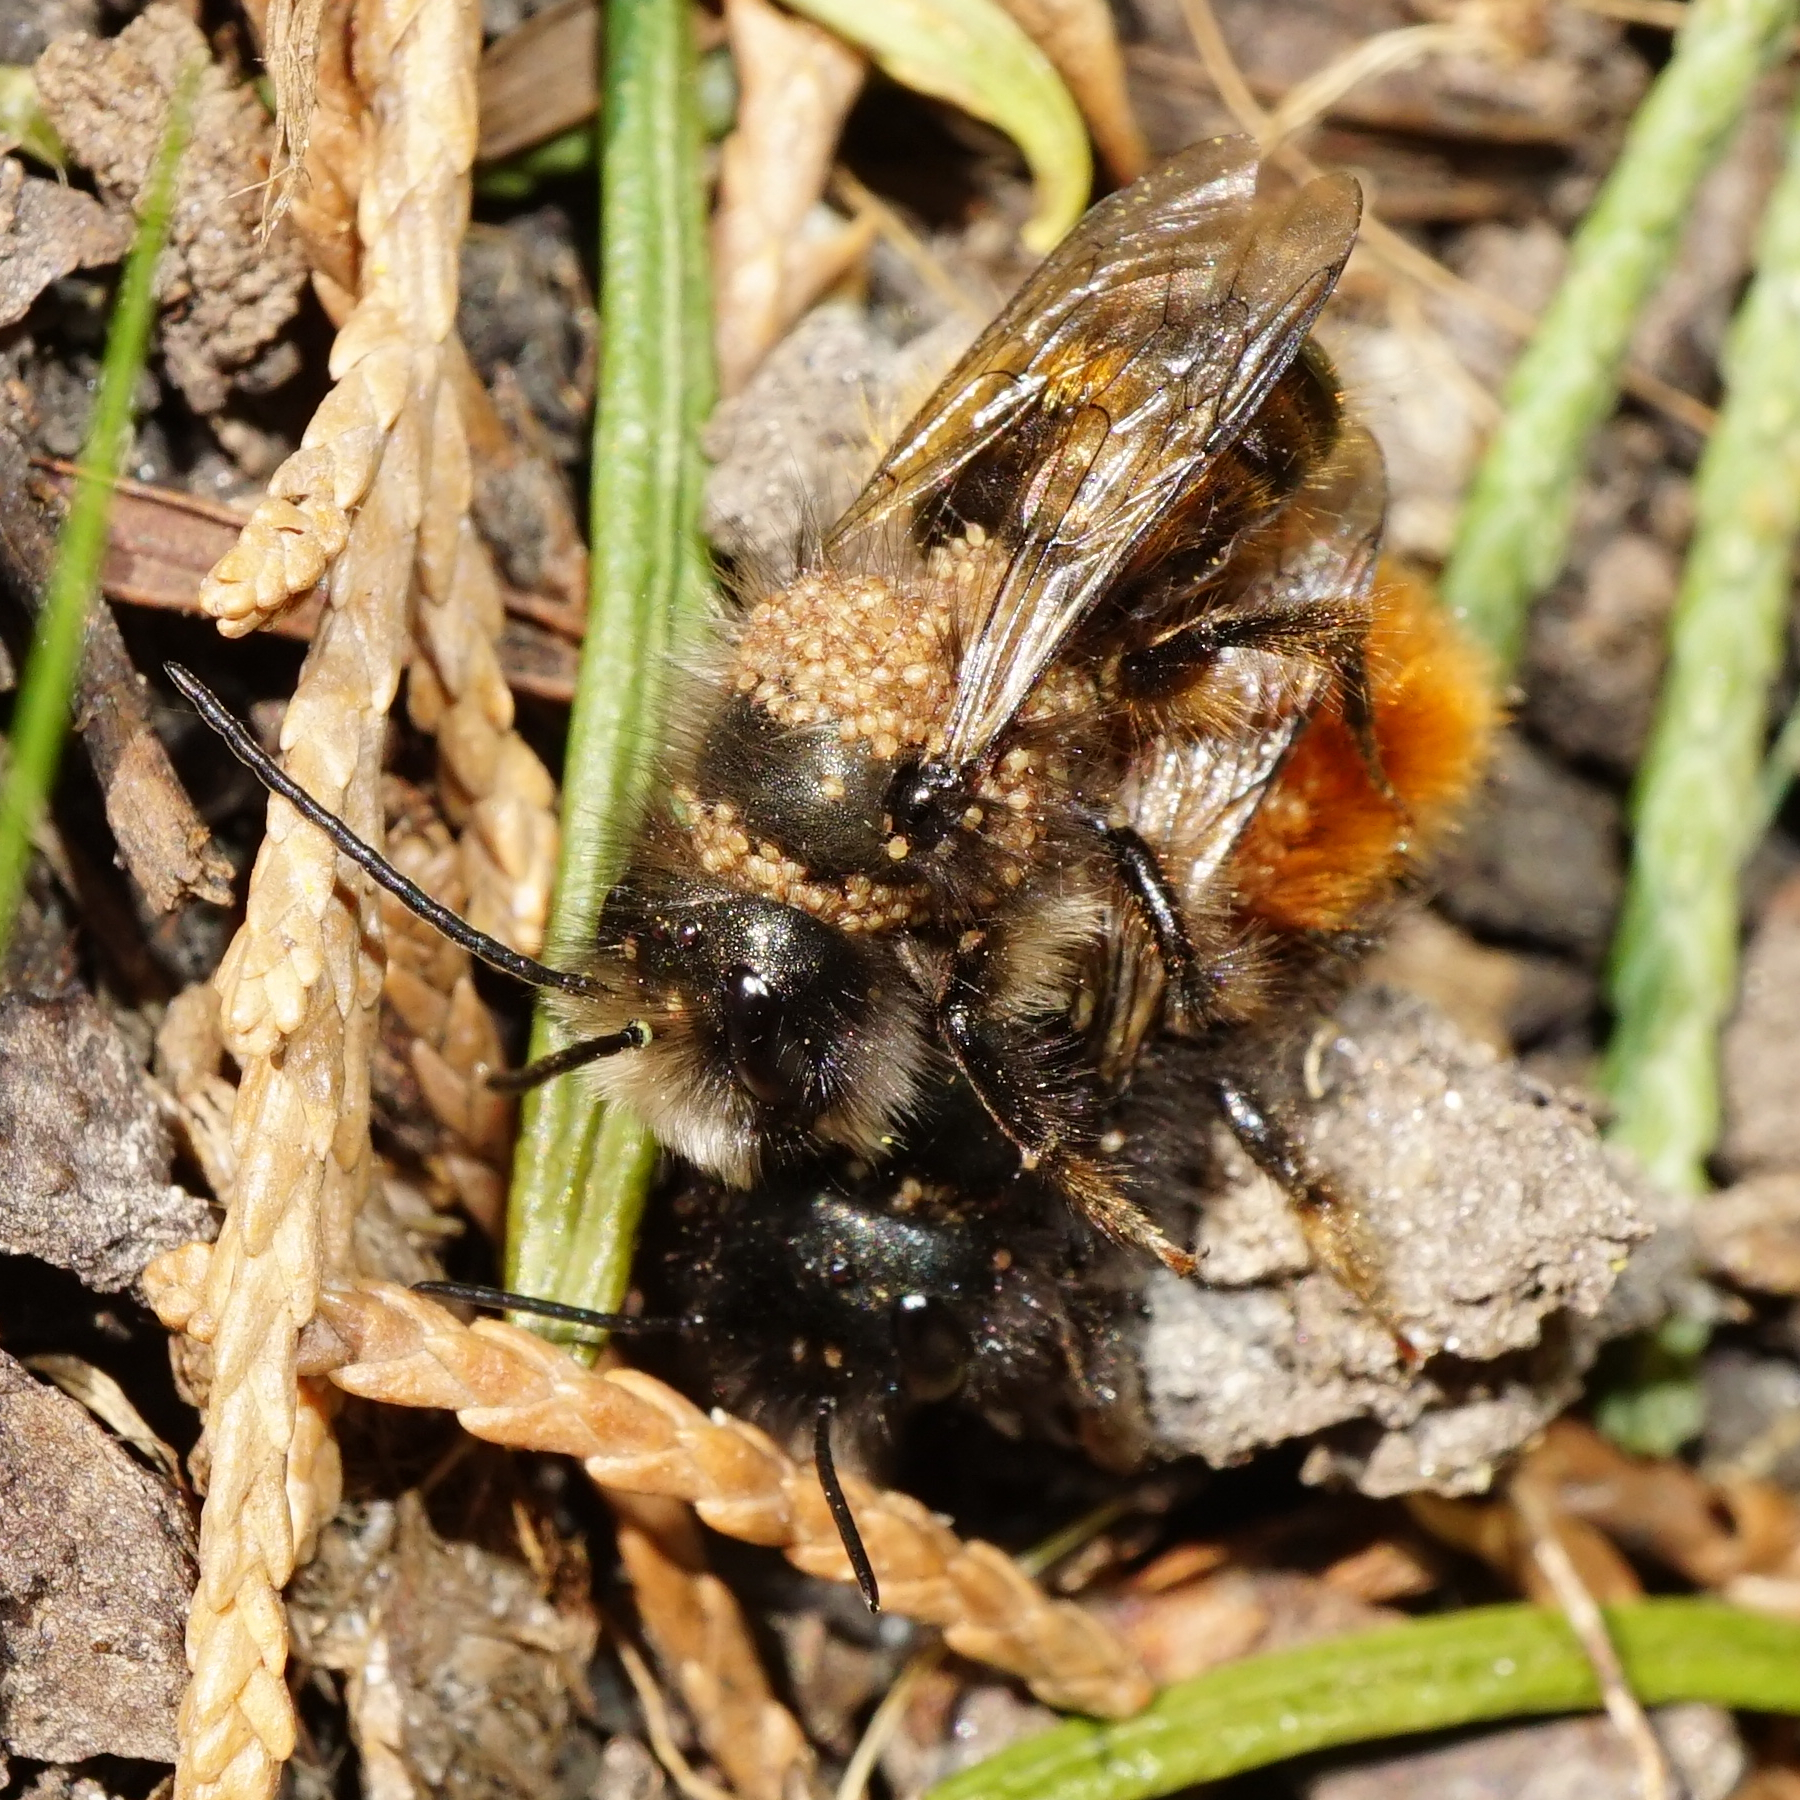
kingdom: Animalia
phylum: Arthropoda
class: Insecta
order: Hymenoptera
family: Megachilidae
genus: Osmia
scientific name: Osmia cornuta
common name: Mason bee
